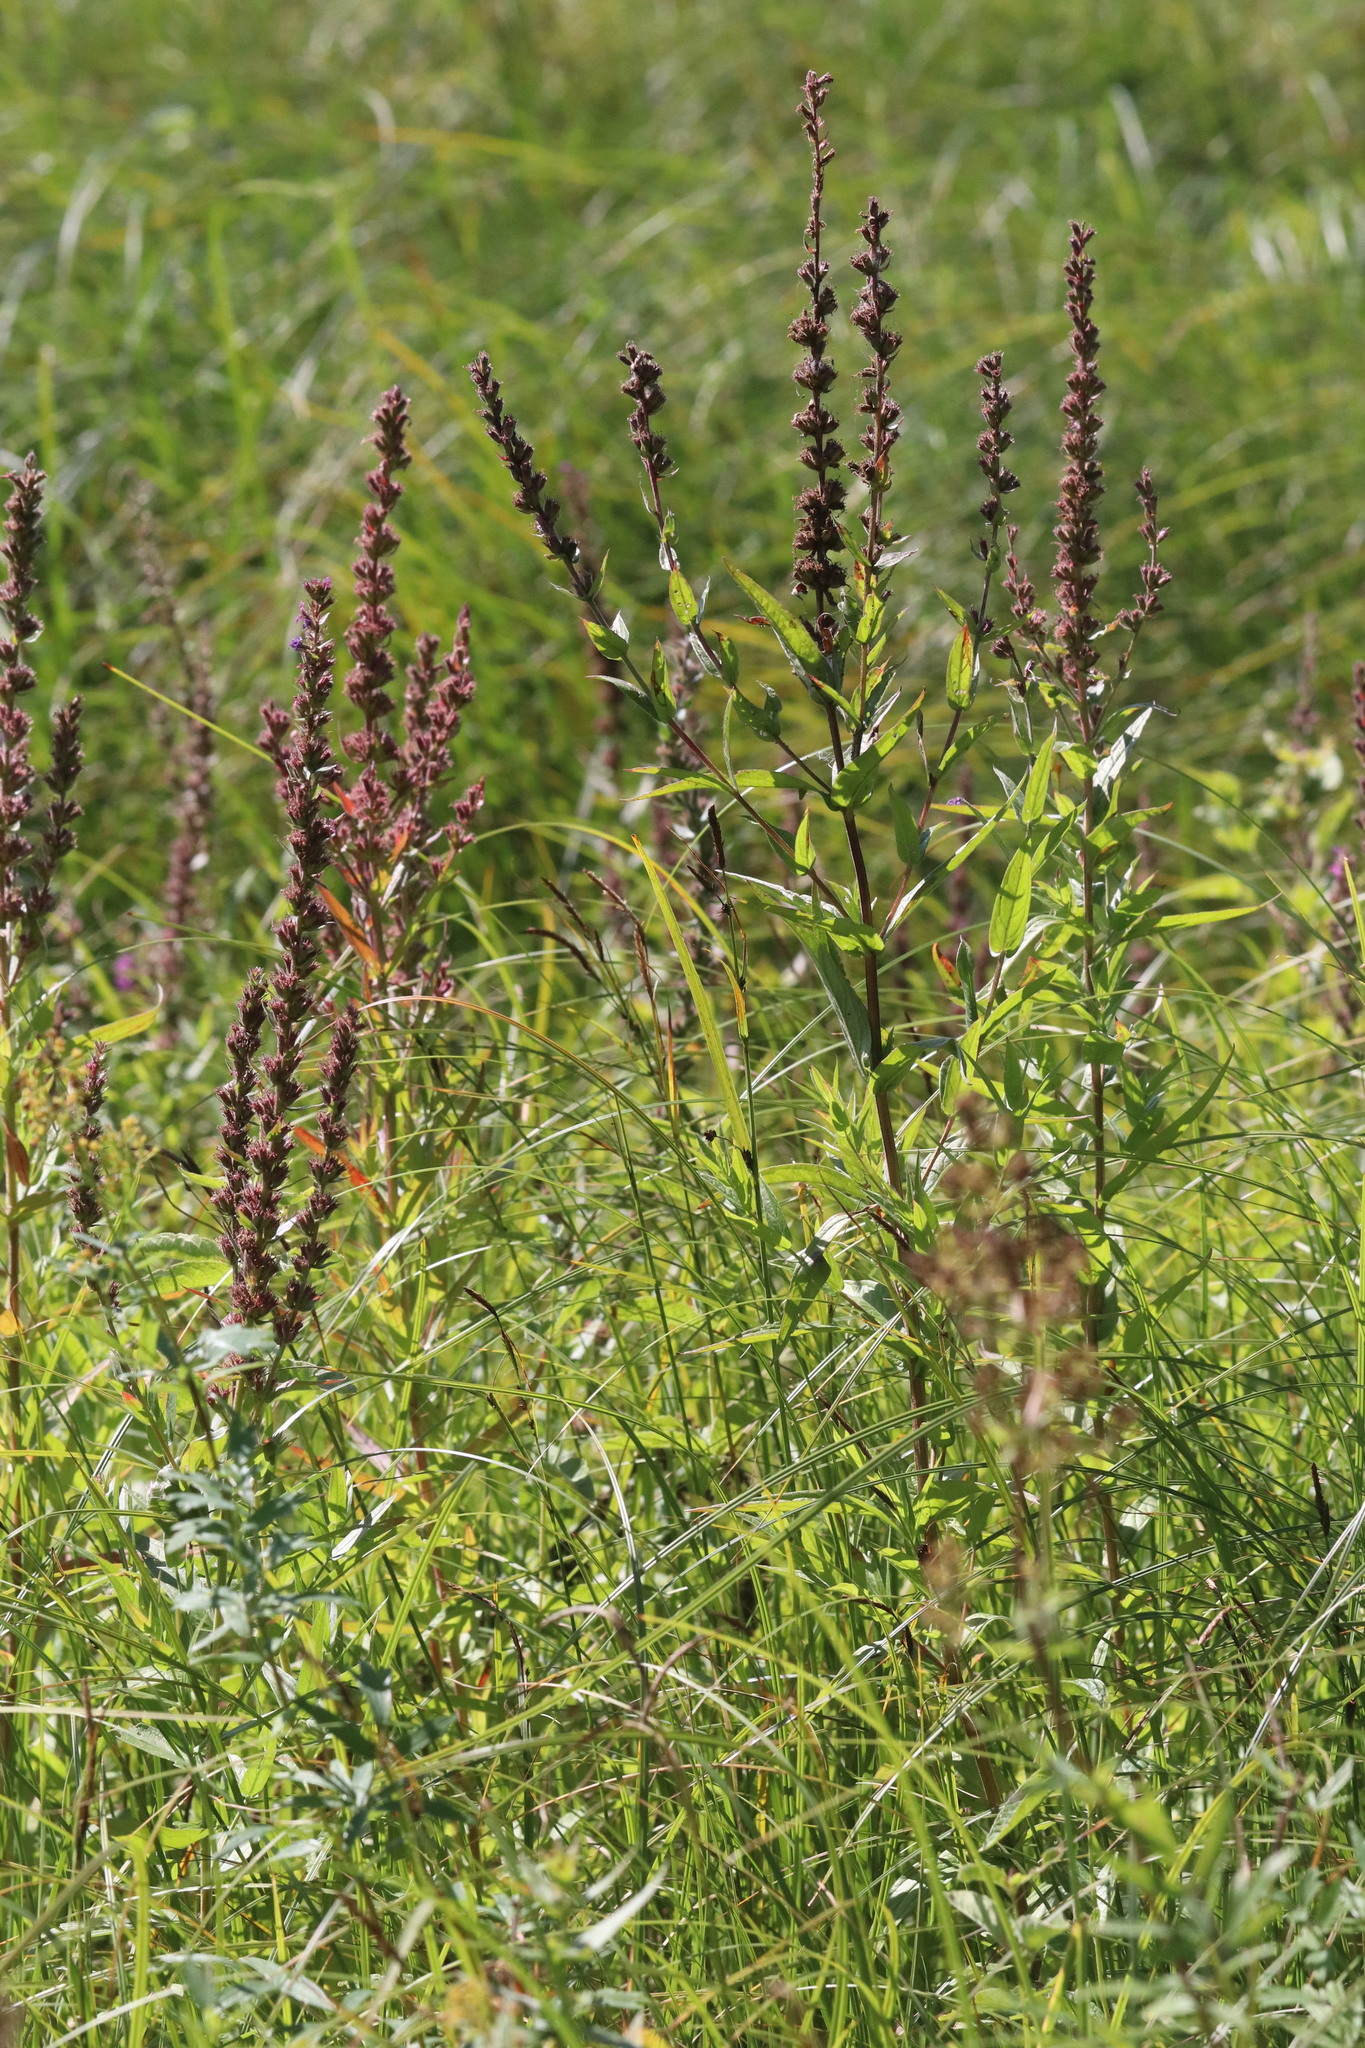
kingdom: Plantae
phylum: Tracheophyta
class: Magnoliopsida
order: Myrtales
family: Lythraceae
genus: Lythrum
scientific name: Lythrum salicaria
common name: Purple loosestrife
